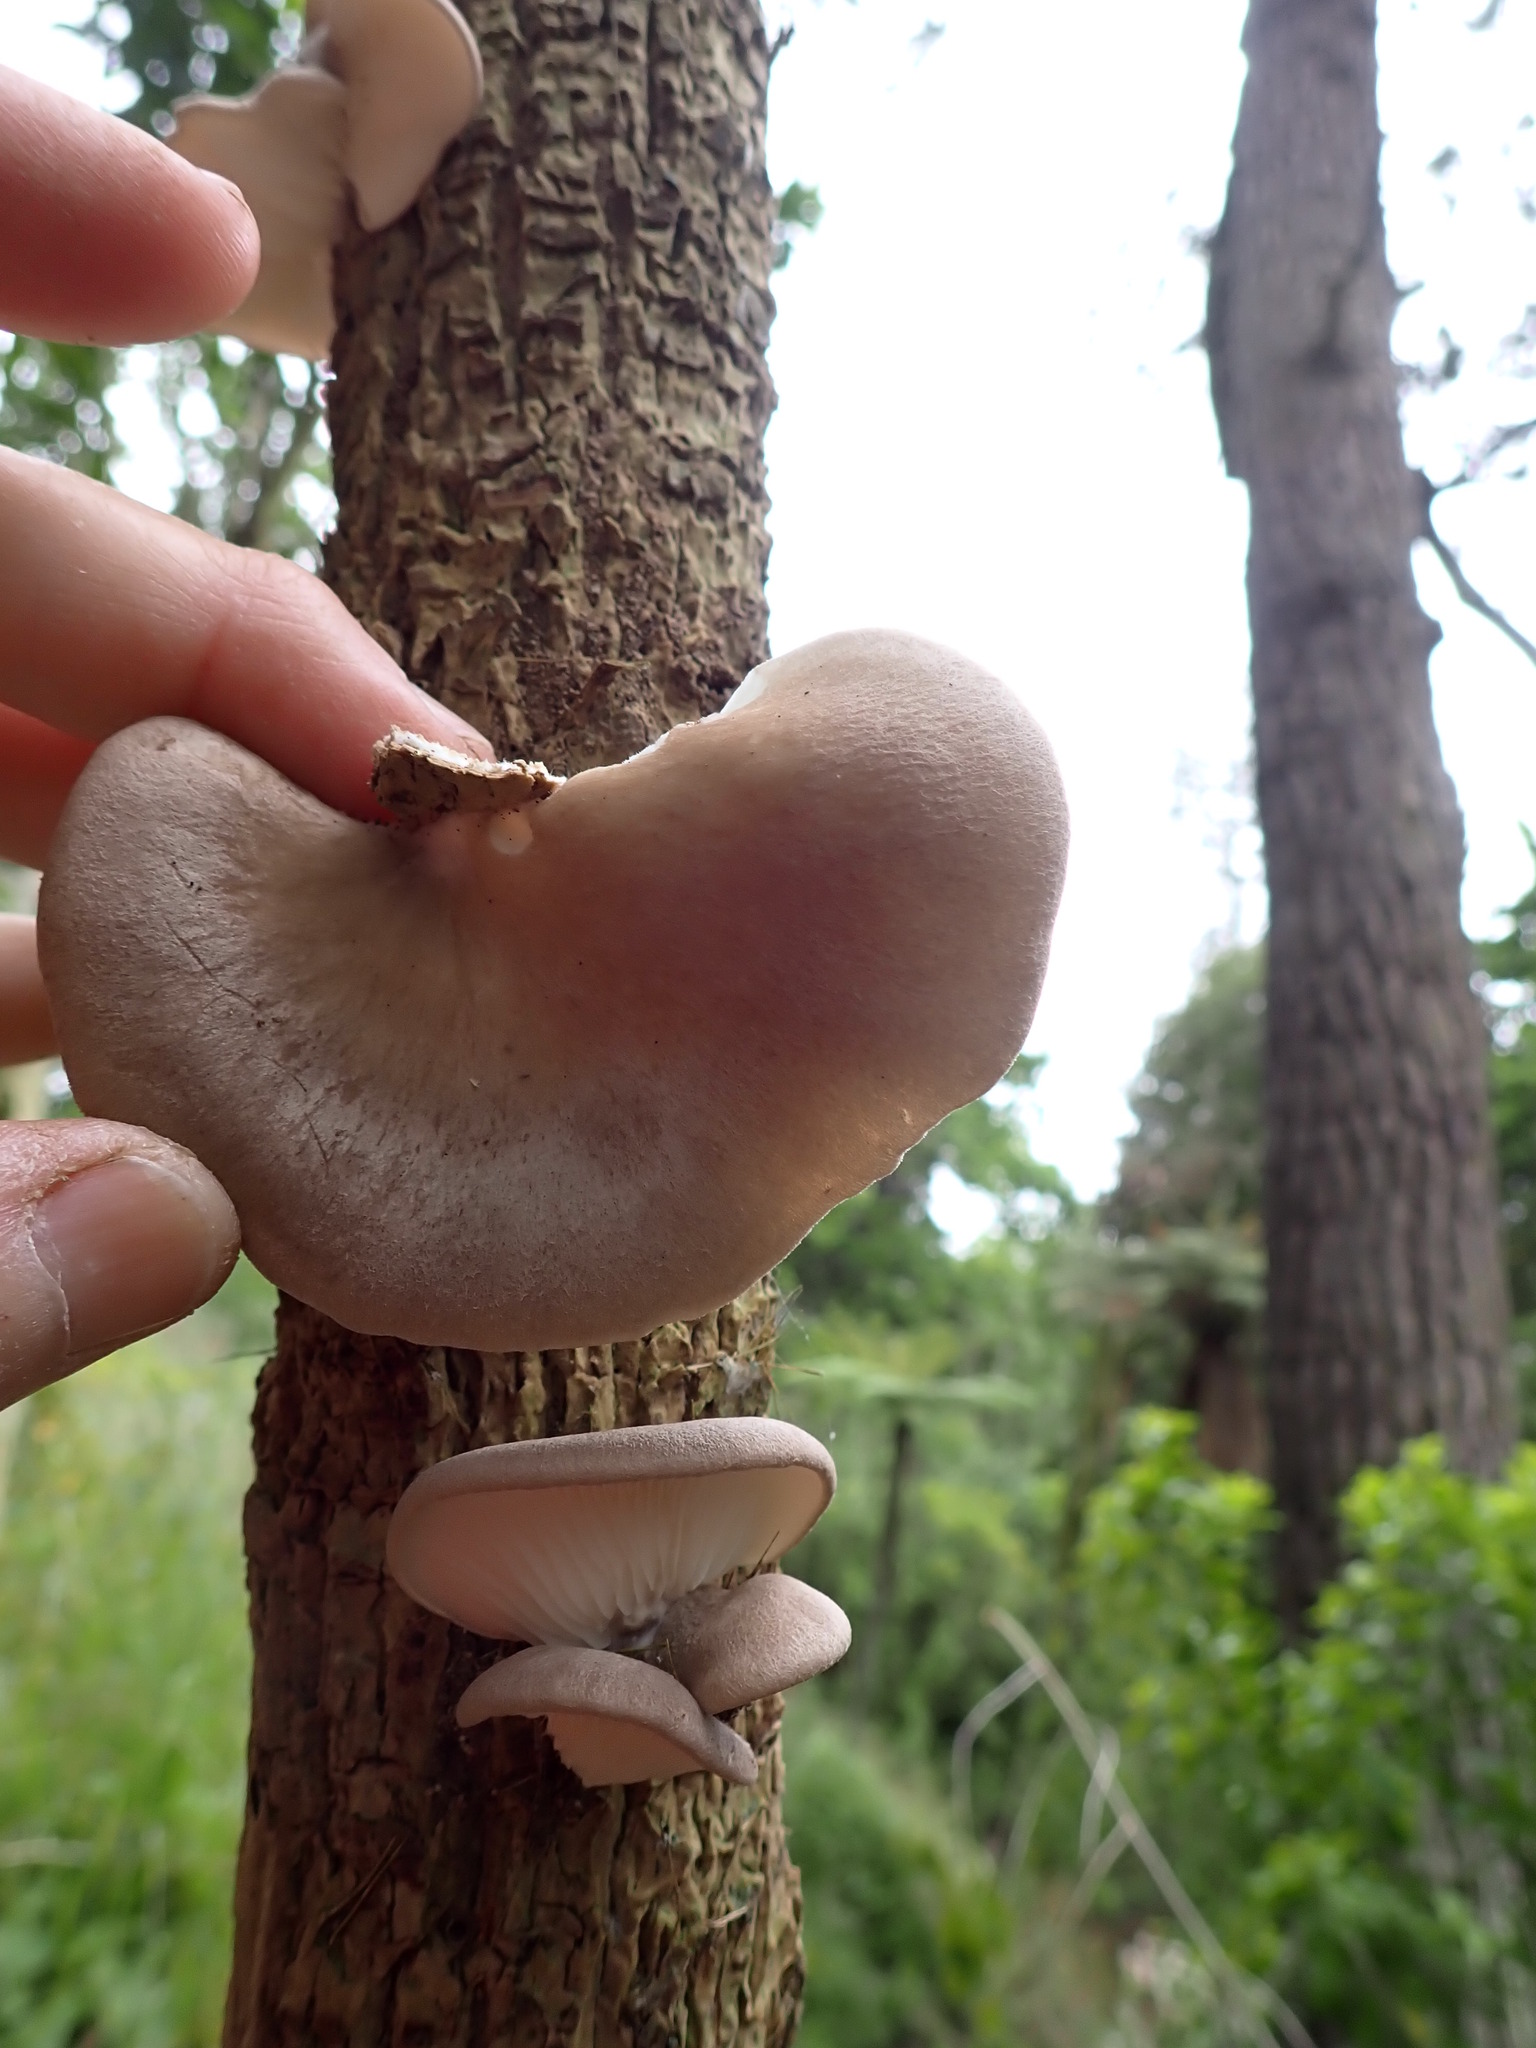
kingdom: Fungi
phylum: Basidiomycota
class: Agaricomycetes
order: Agaricales
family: Pleurotaceae
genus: Pleurotus
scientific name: Pleurotus parsonsiae
